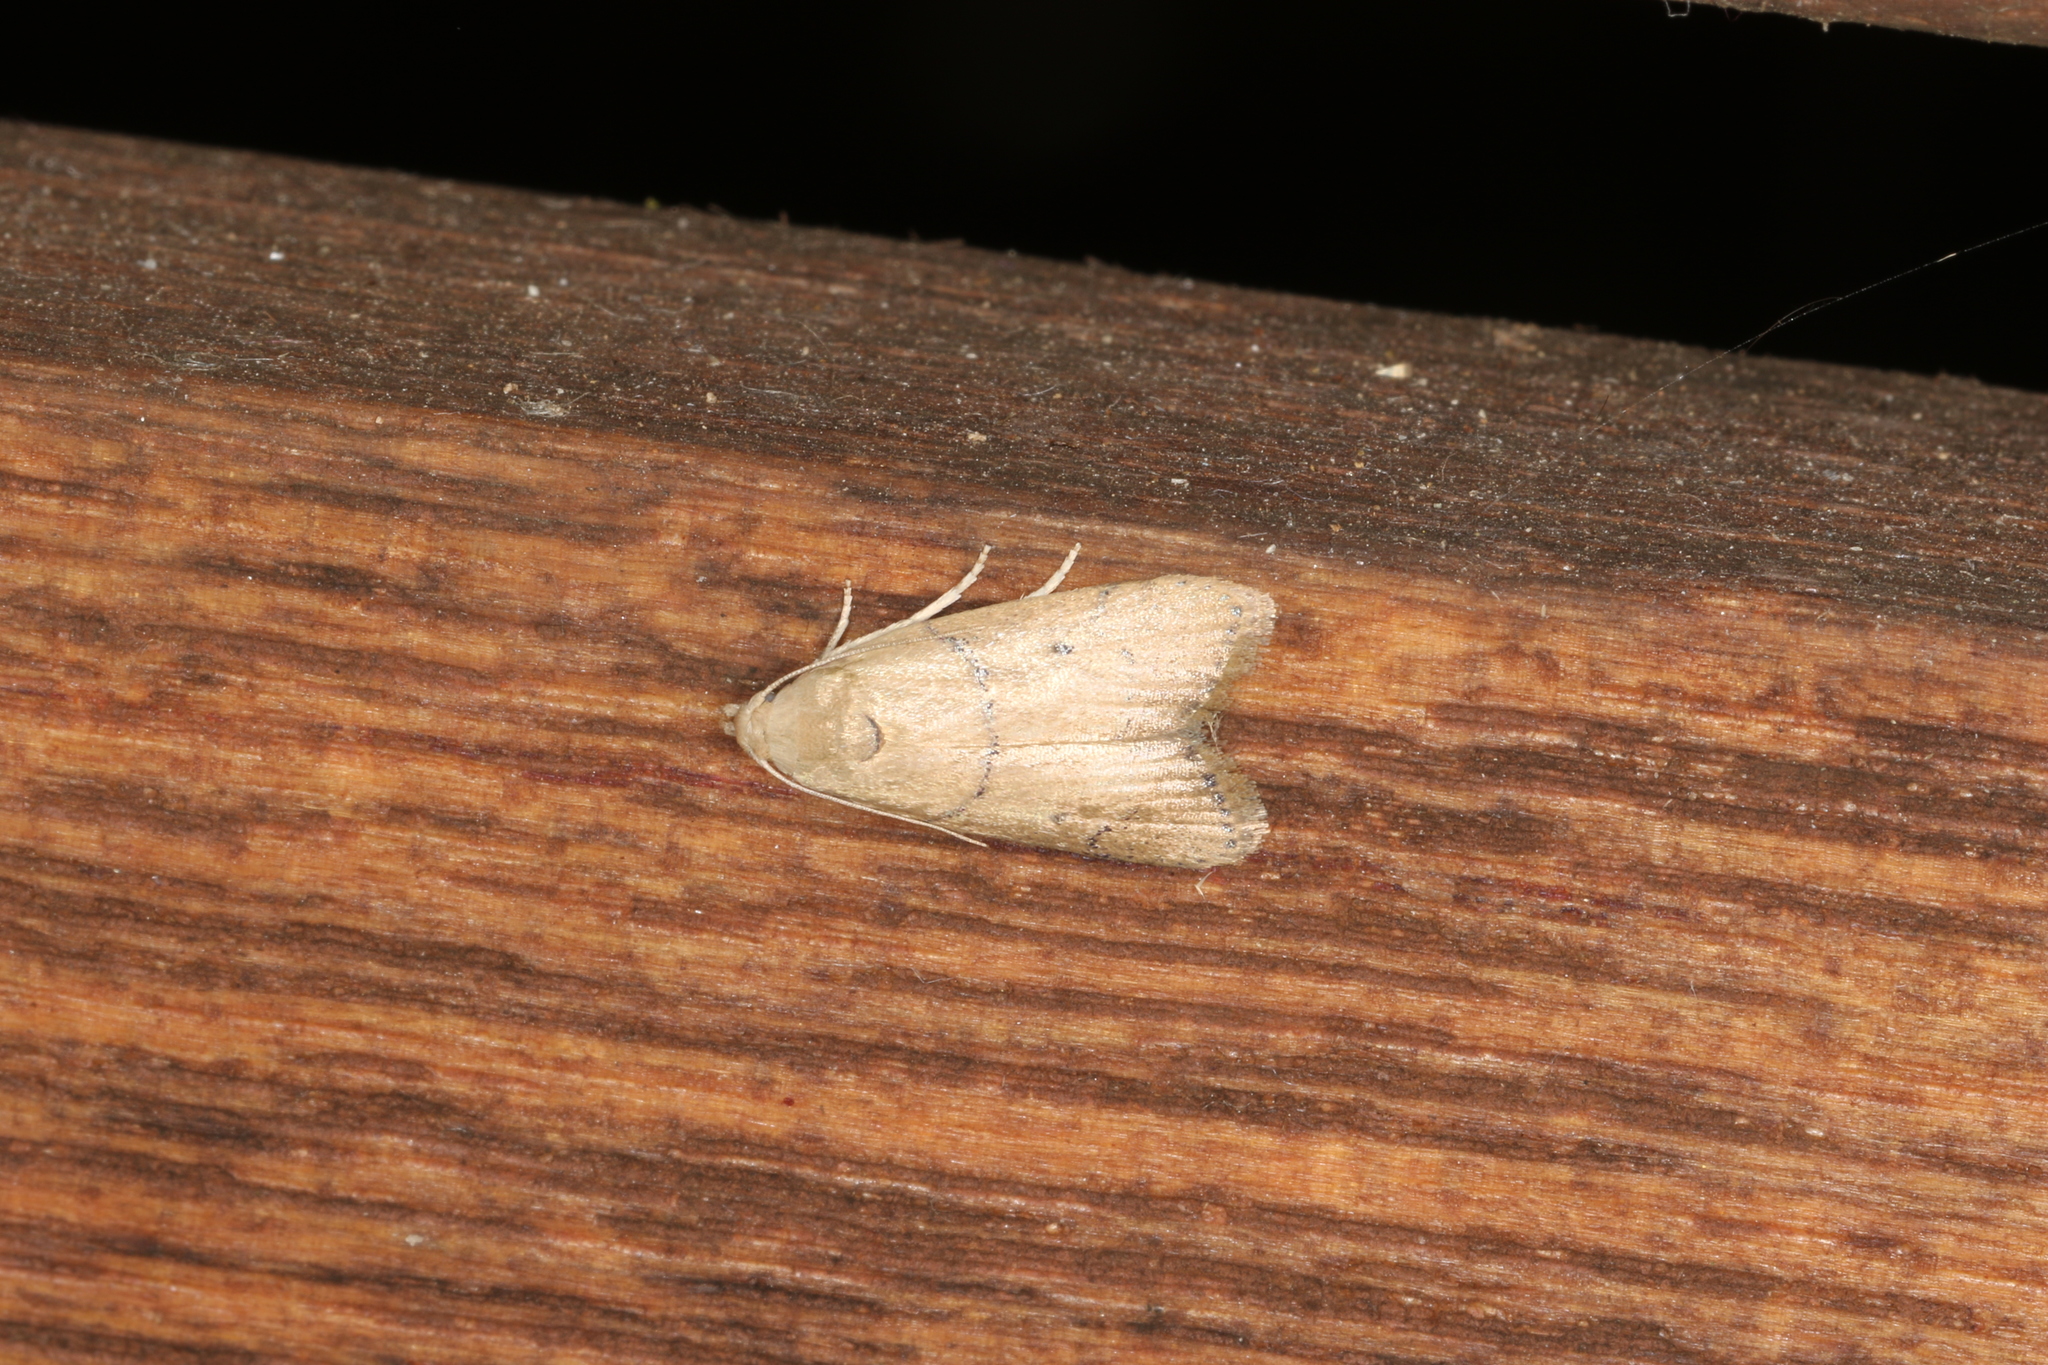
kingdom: Animalia
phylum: Arthropoda
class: Insecta
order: Lepidoptera
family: Pyralidae
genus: Doloessa
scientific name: Doloessa ochrociliella
